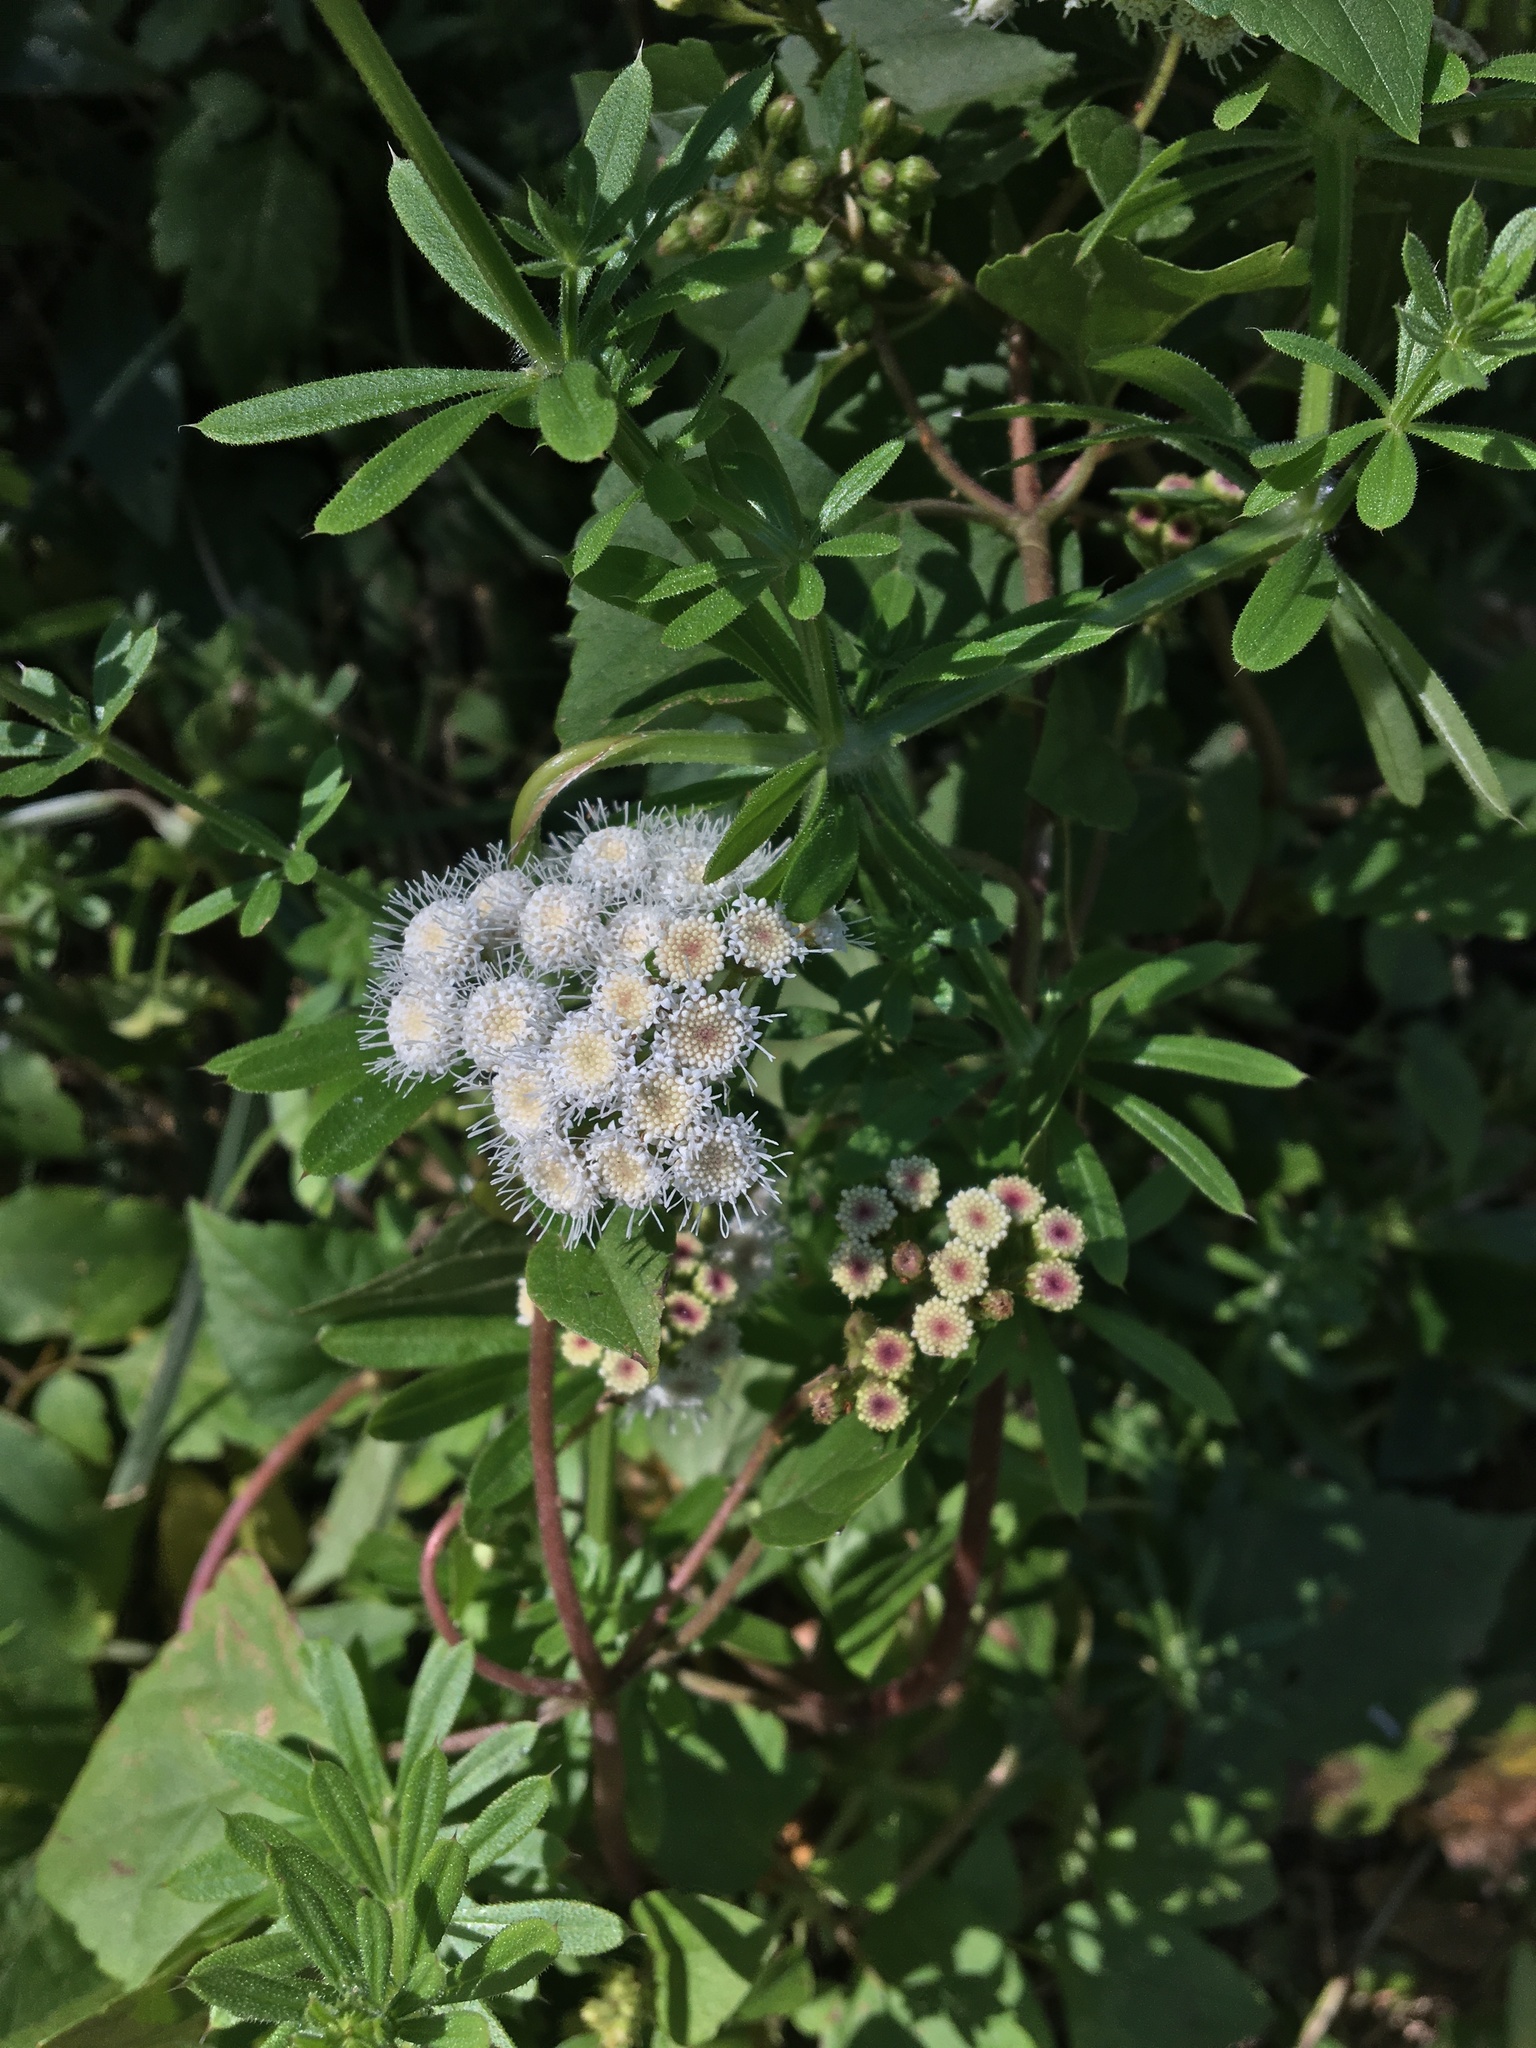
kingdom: Plantae
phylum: Tracheophyta
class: Magnoliopsida
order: Asterales
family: Asteraceae
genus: Ageratina
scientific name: Ageratina adenophora
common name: Sticky snakeroot
